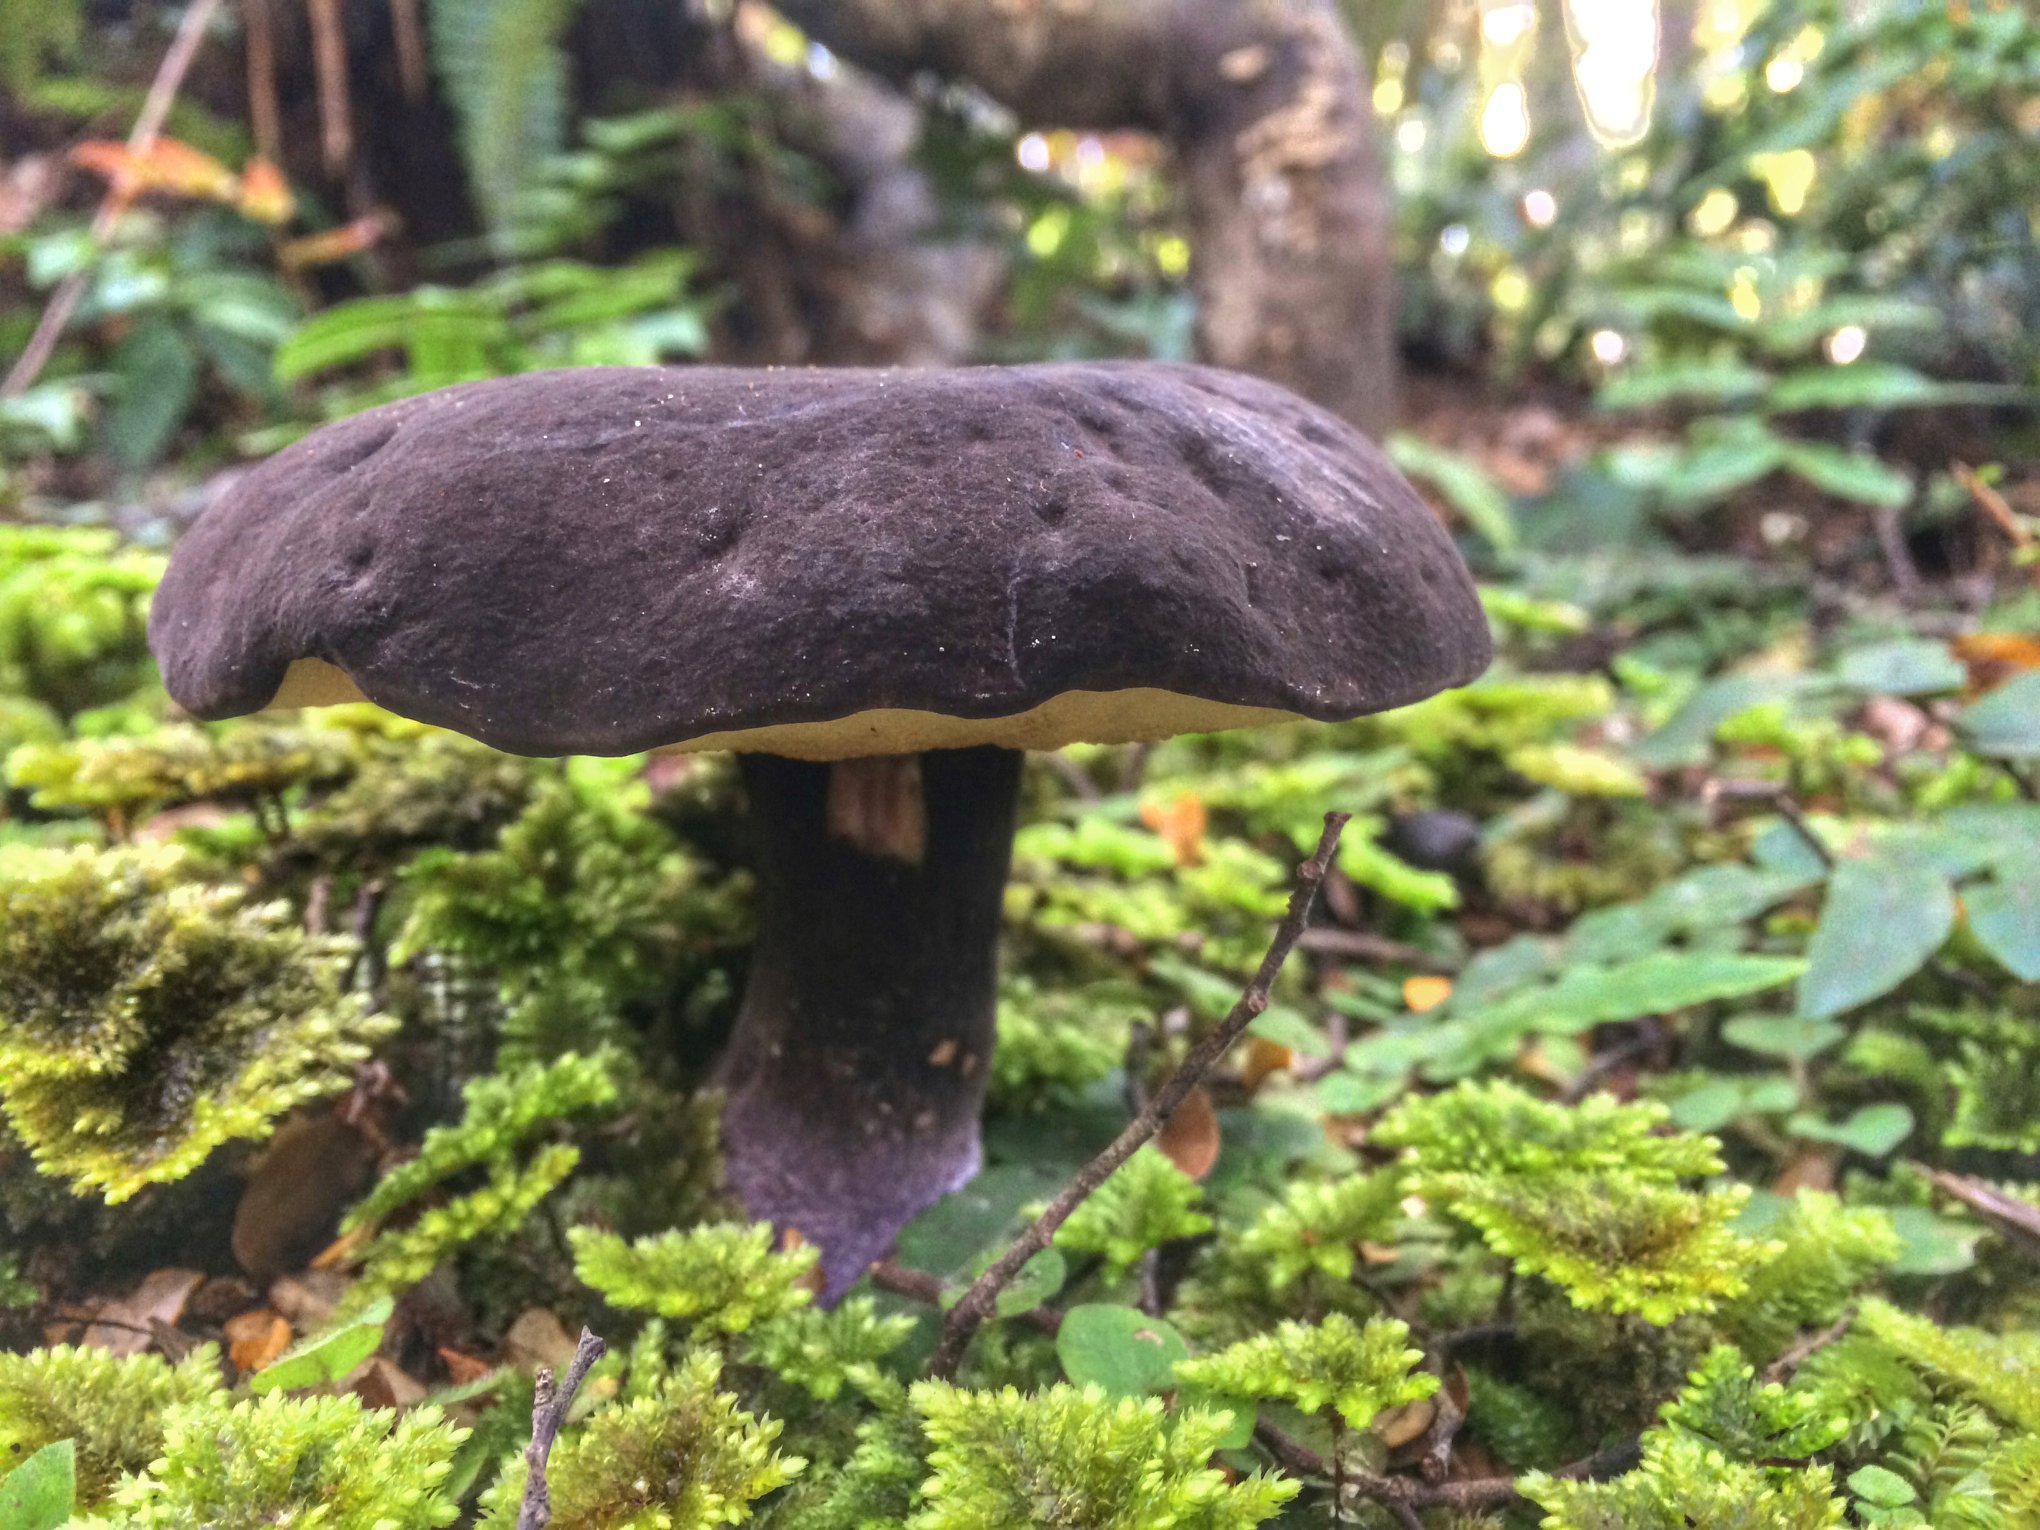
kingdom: Fungi
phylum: Basidiomycota
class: Agaricomycetes
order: Boletales
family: Boletaceae
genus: Porphyrellus
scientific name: Porphyrellus formosus
